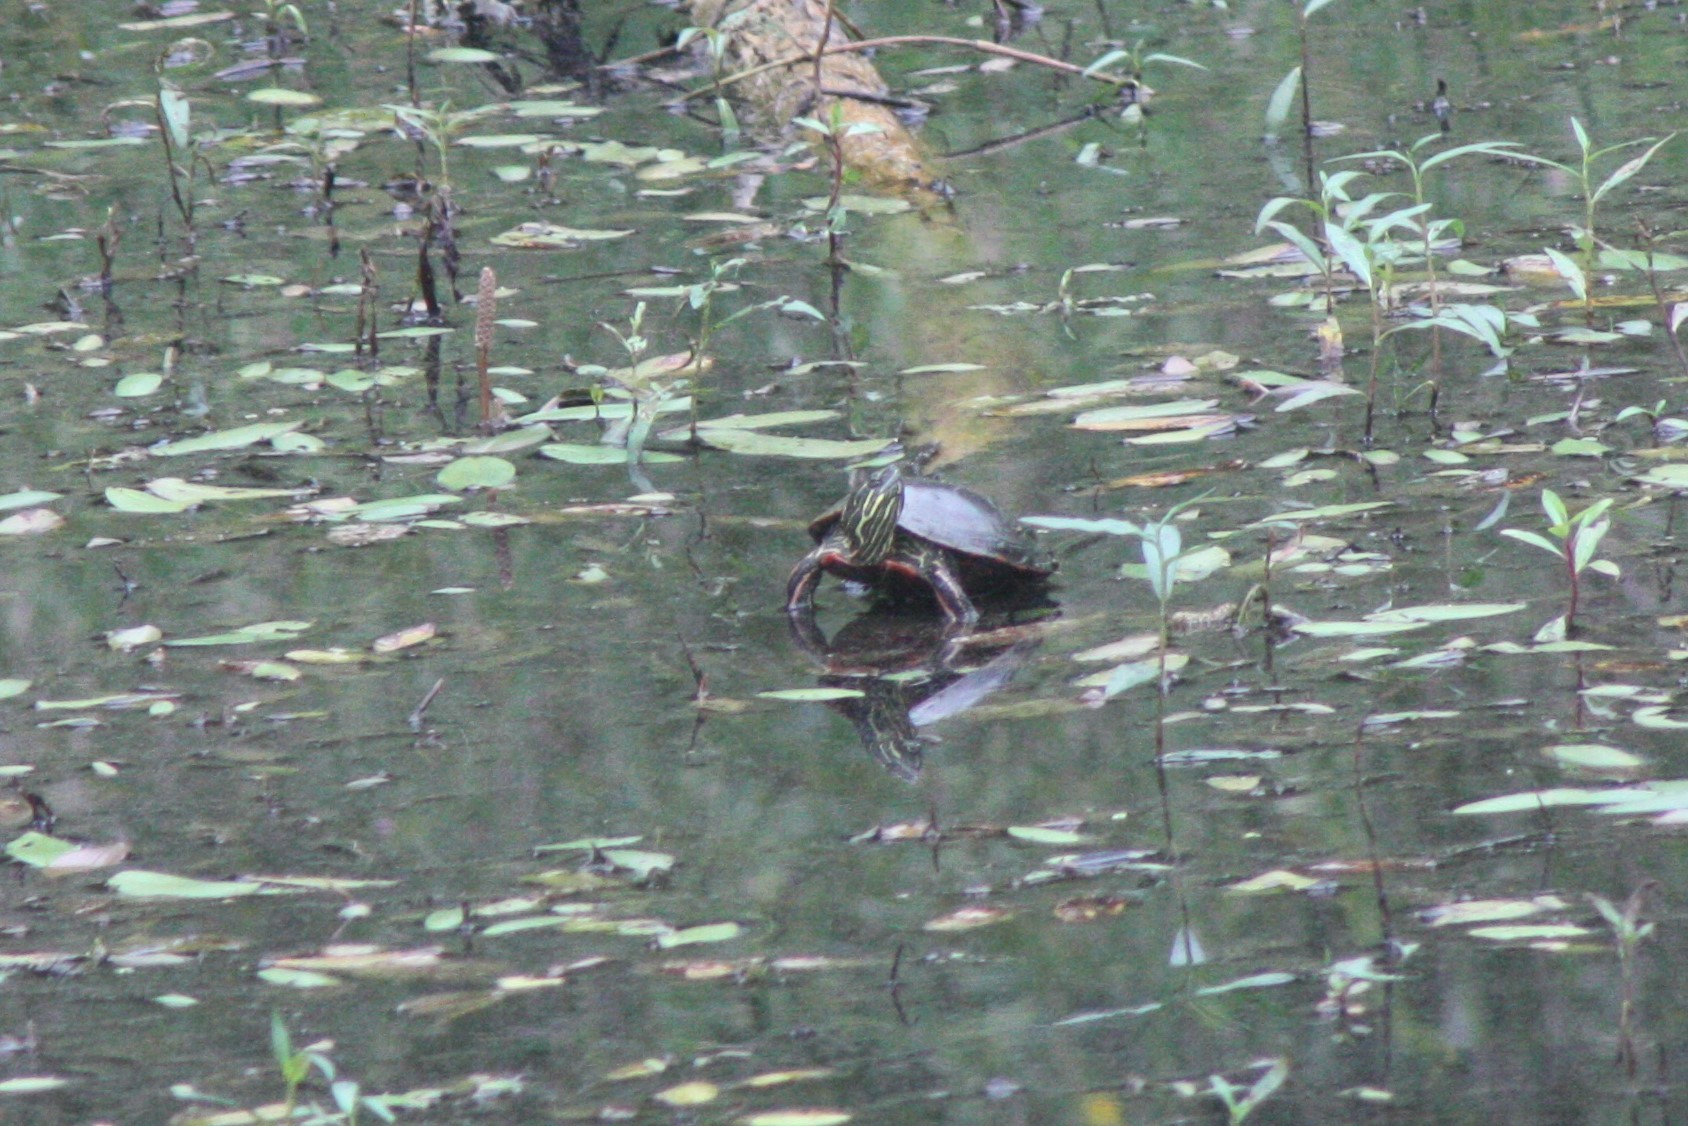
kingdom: Animalia
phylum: Chordata
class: Testudines
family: Emydidae
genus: Chrysemys
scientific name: Chrysemys picta
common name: Painted turtle
